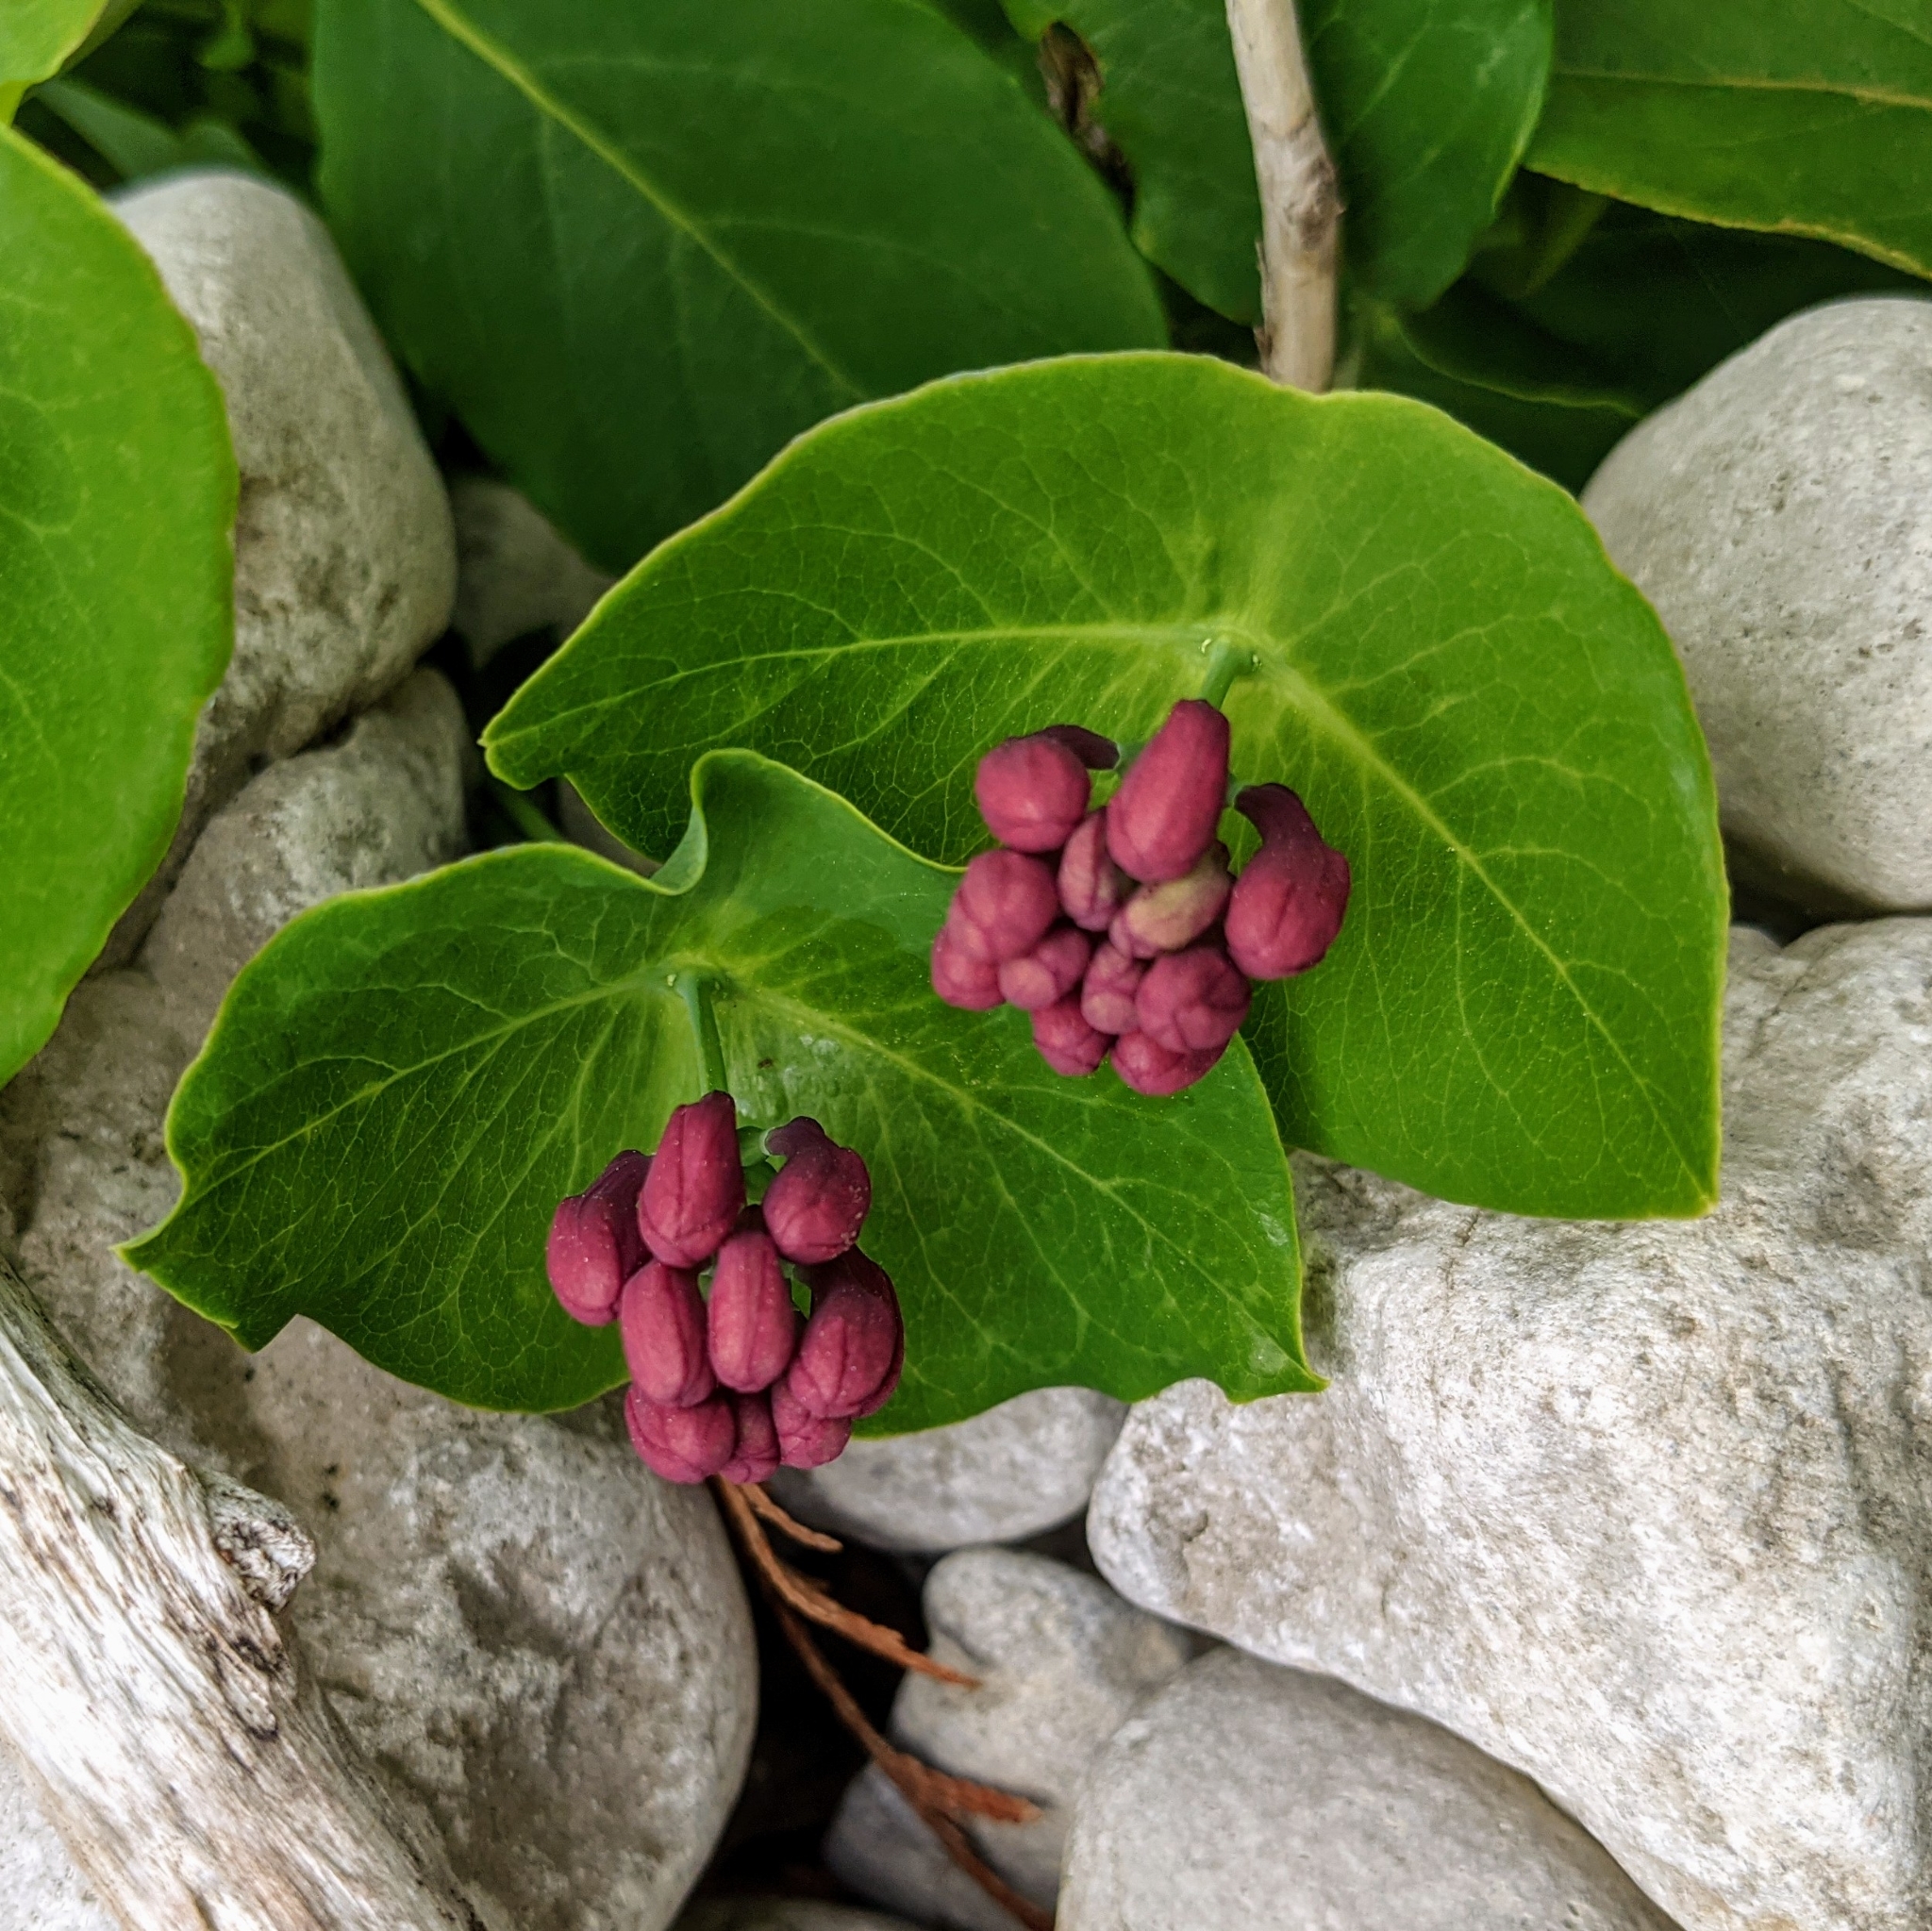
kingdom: Plantae
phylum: Tracheophyta
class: Magnoliopsida
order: Dipsacales
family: Caprifoliaceae
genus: Lonicera
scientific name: Lonicera dioica
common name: Limber honeysuckle
